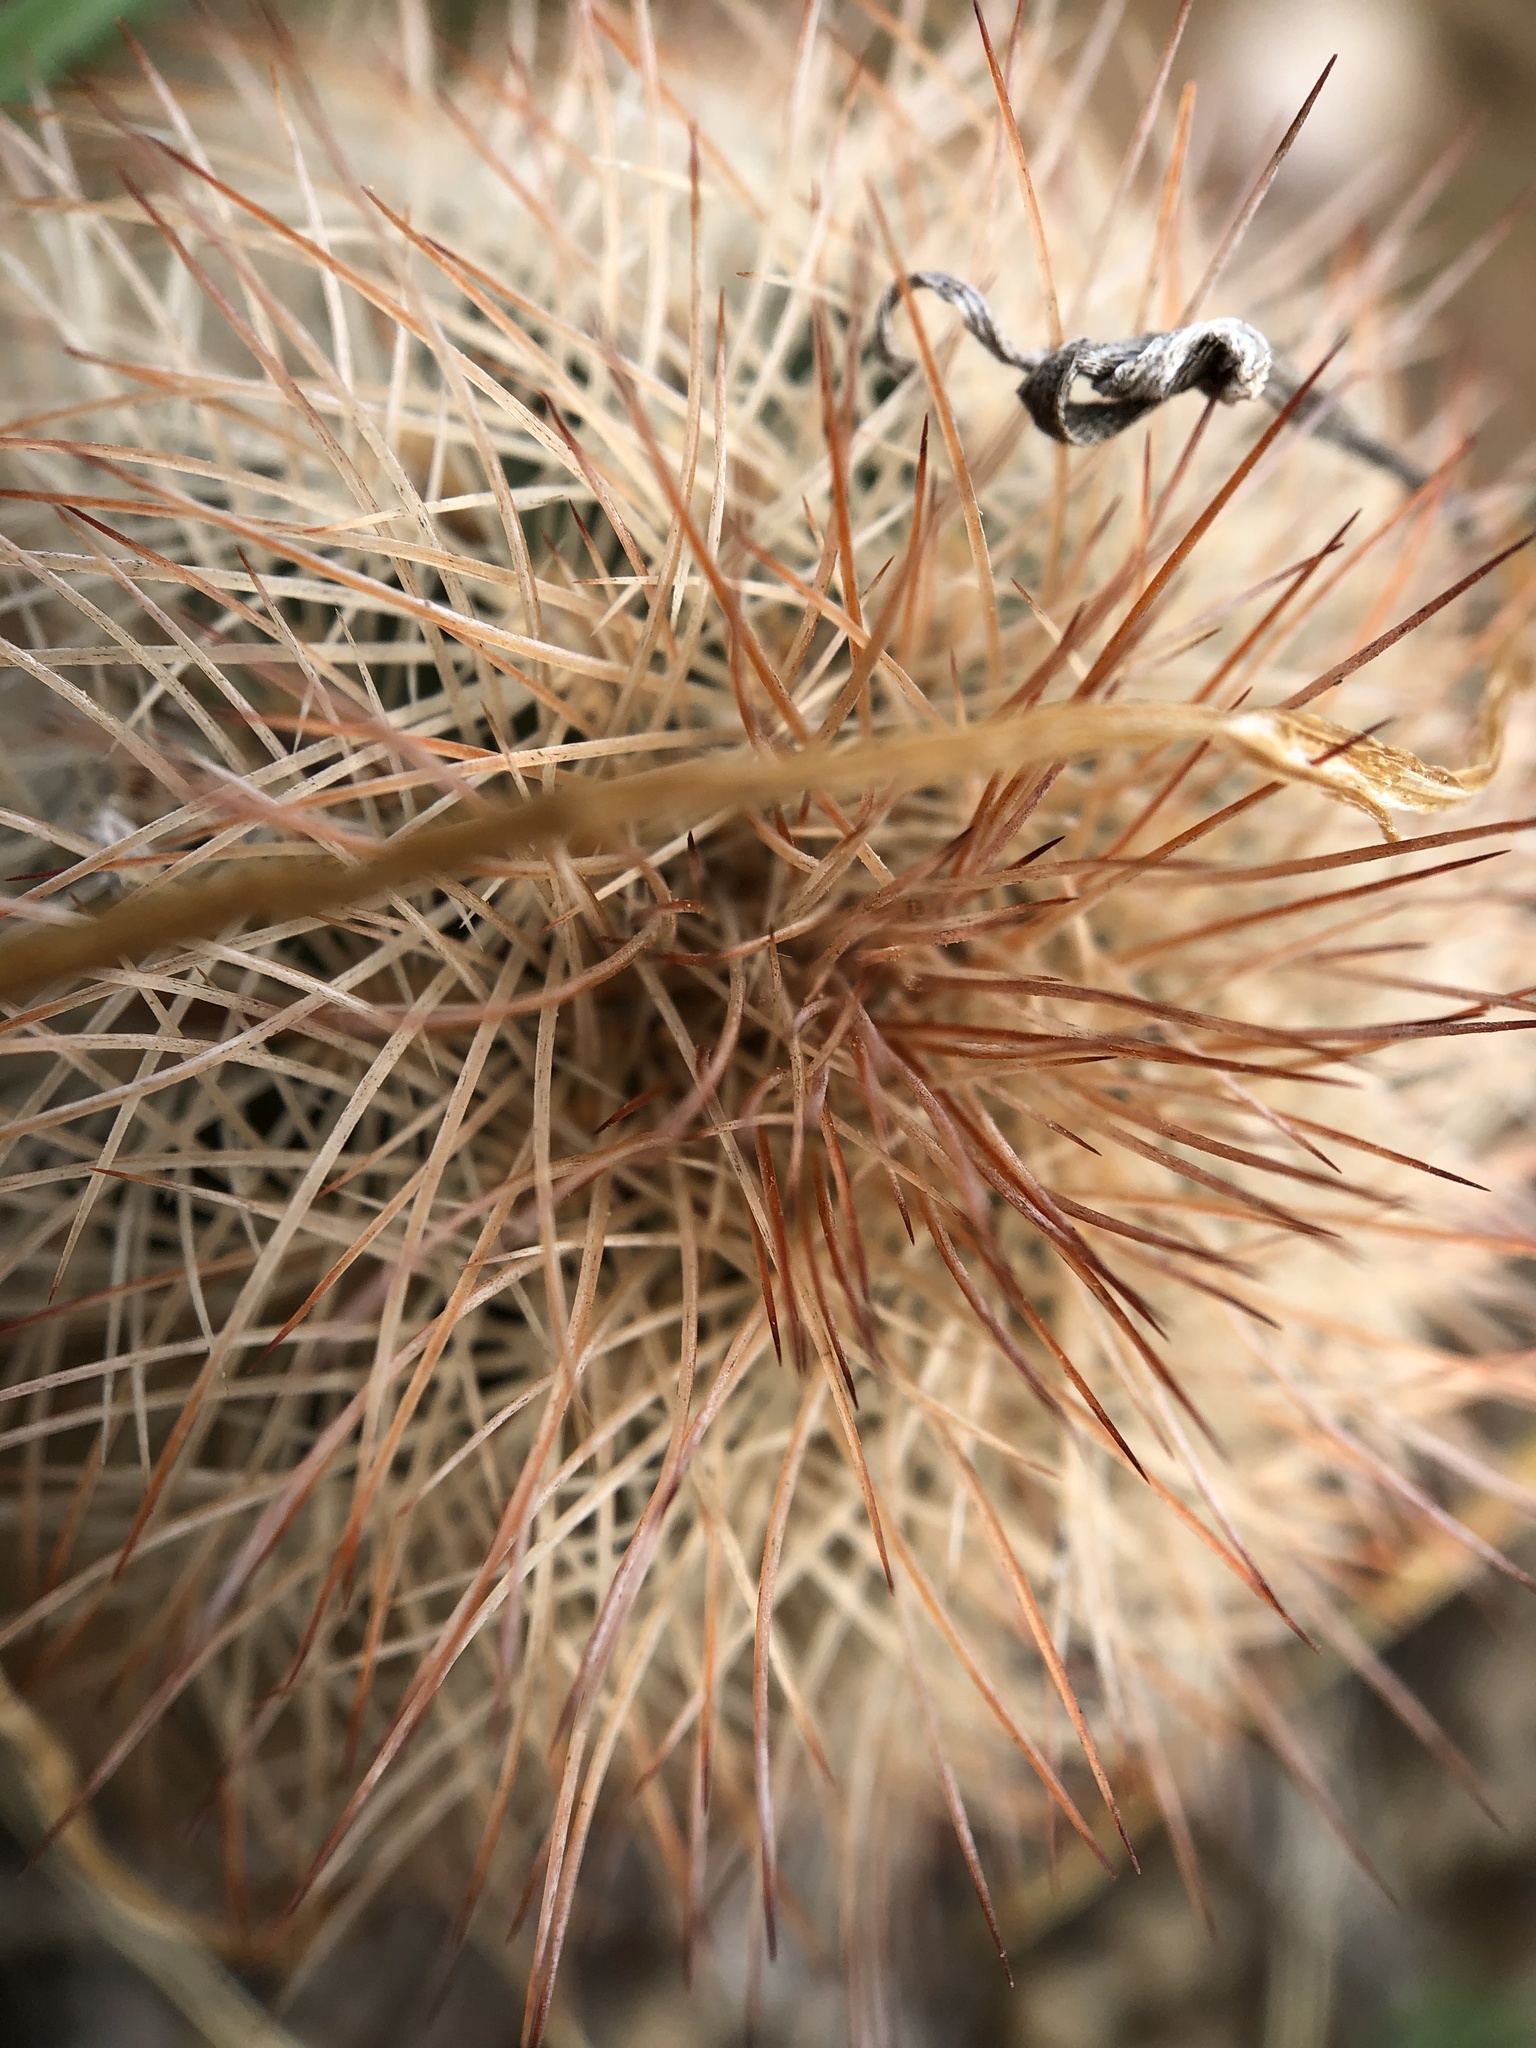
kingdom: Plantae
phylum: Tracheophyta
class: Magnoliopsida
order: Caryophyllales
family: Cactaceae
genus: Echinocereus
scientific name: Echinocereus reichenbachii
